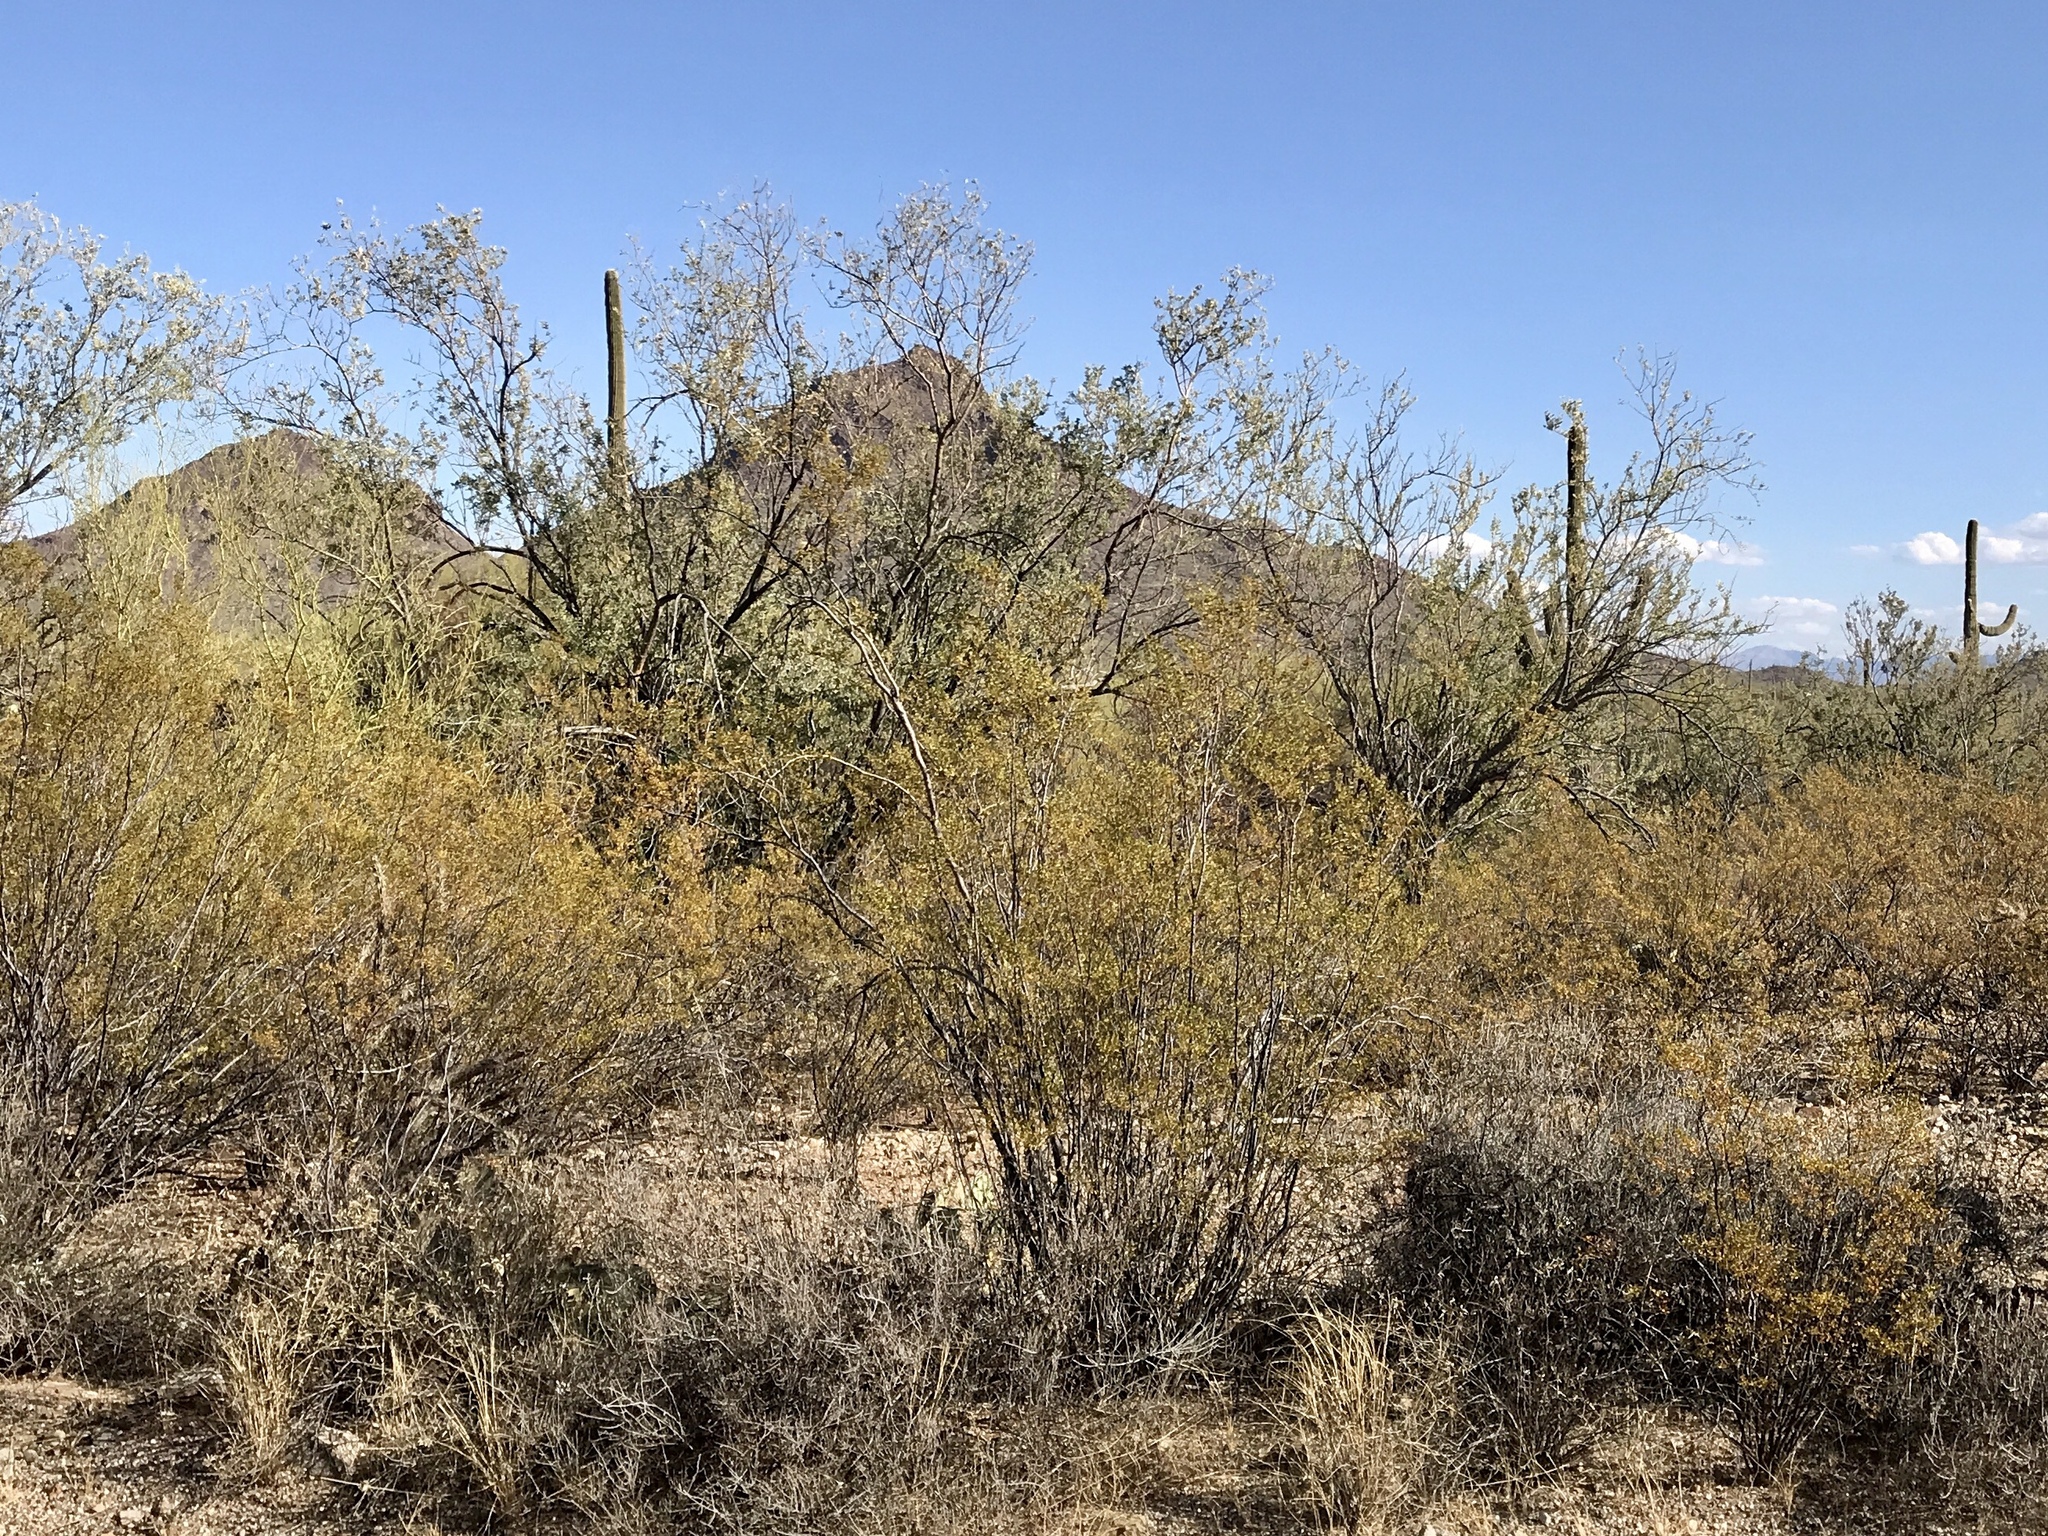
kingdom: Plantae
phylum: Tracheophyta
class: Magnoliopsida
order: Zygophyllales
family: Zygophyllaceae
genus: Larrea
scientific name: Larrea tridentata
